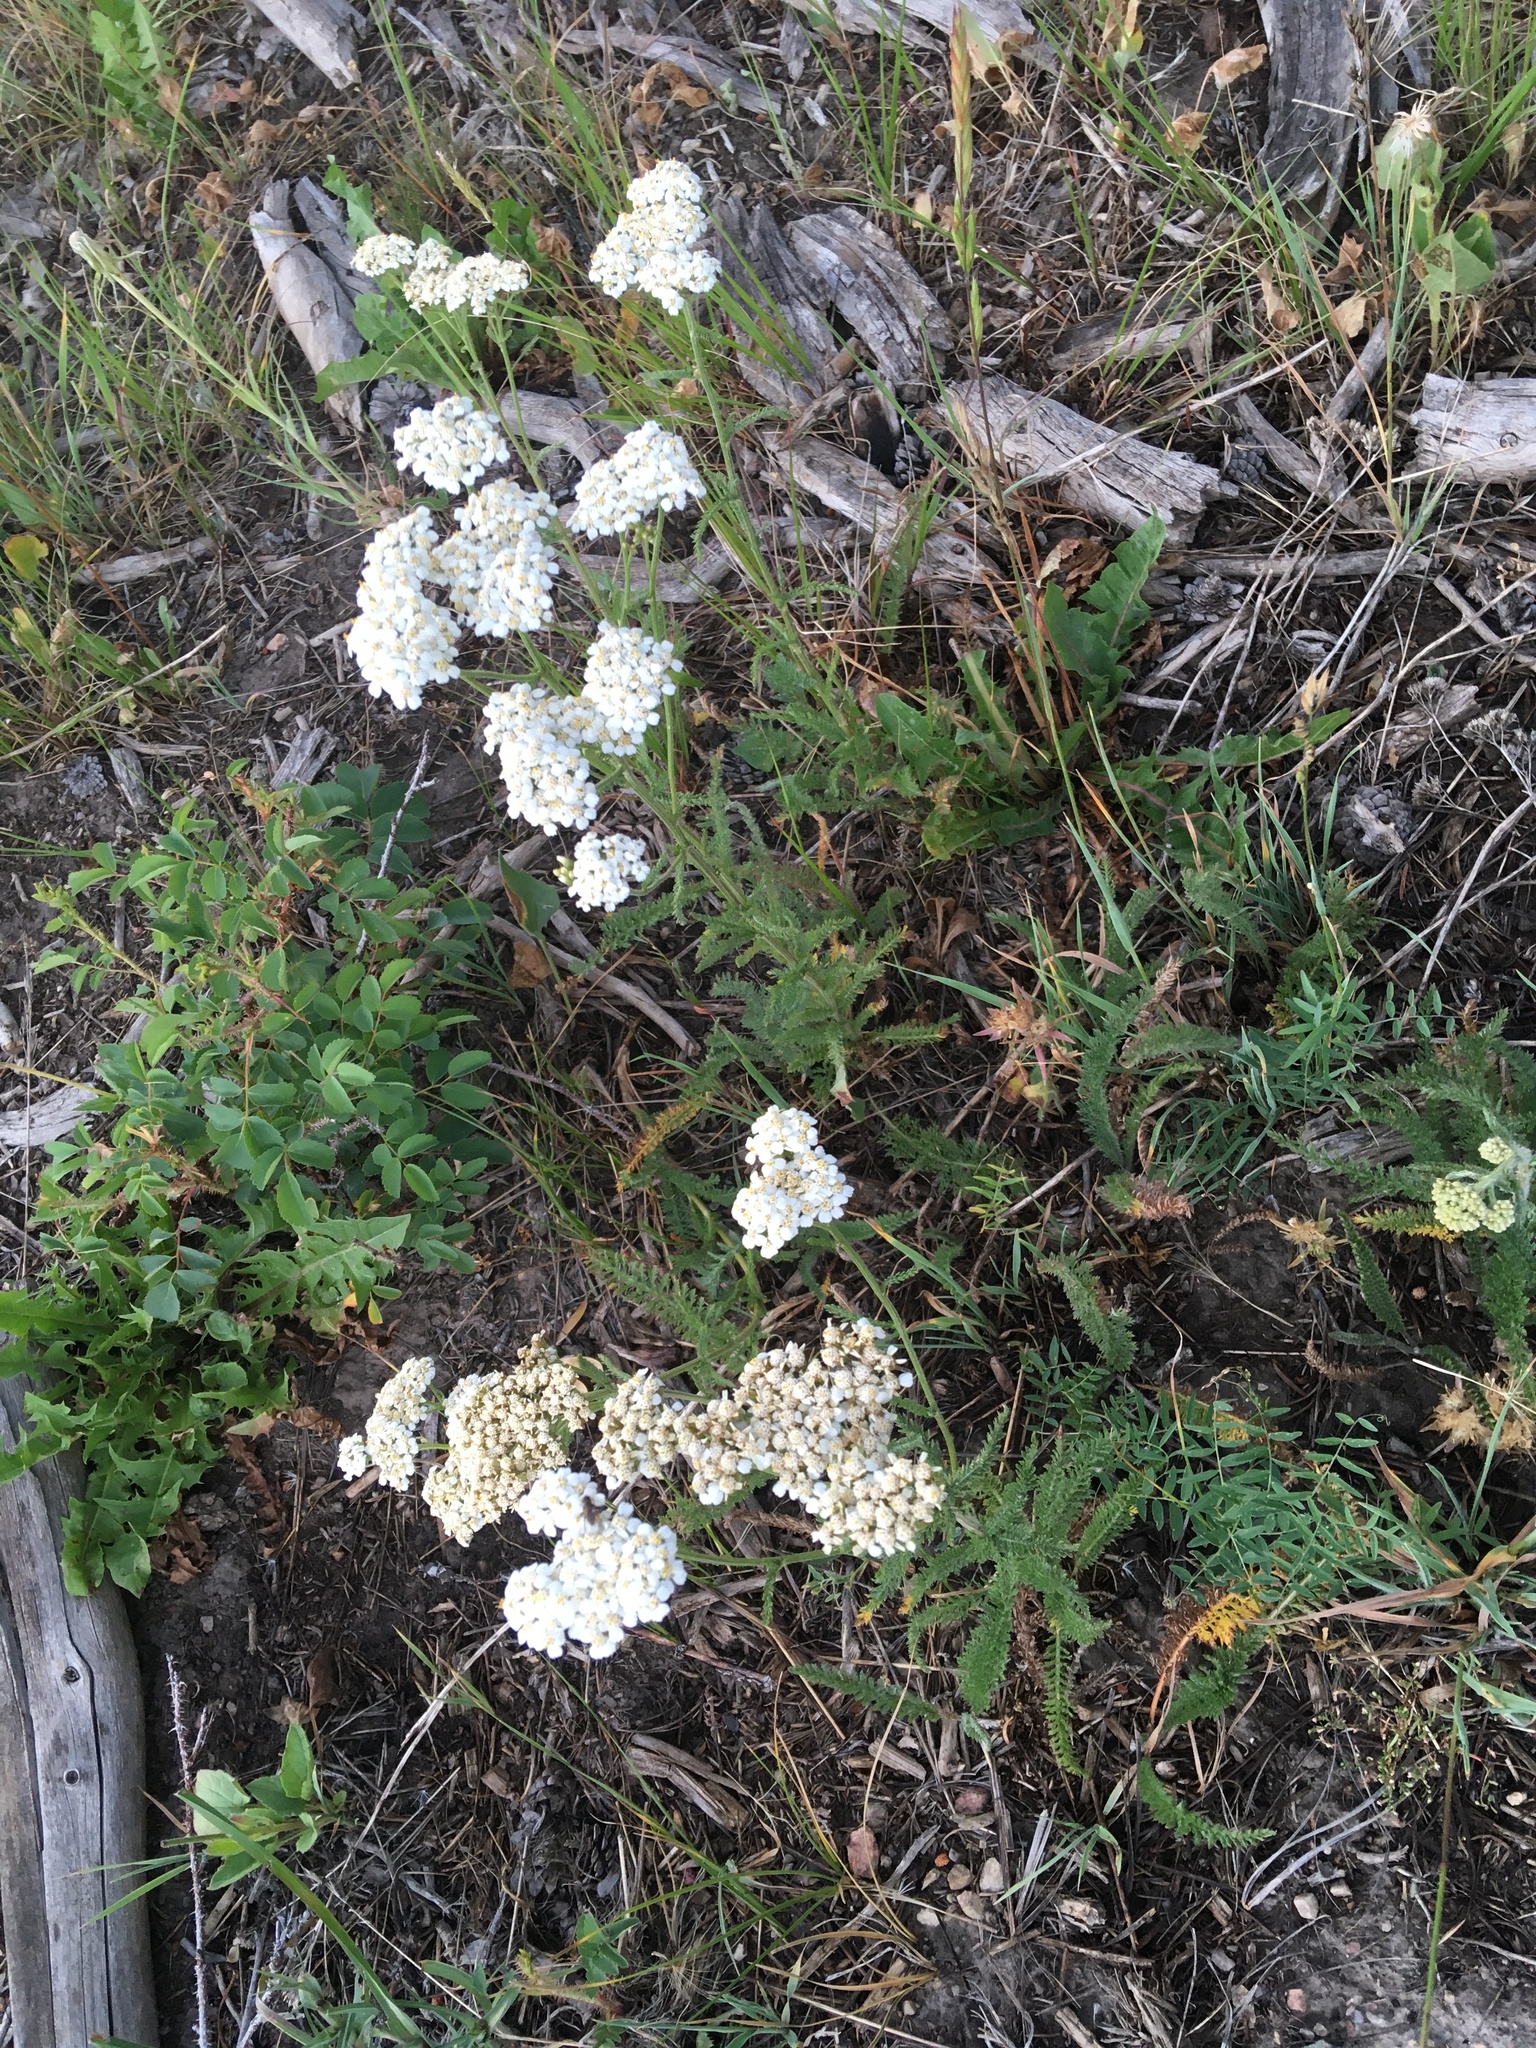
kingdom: Plantae
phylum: Tracheophyta
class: Magnoliopsida
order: Asterales
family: Asteraceae
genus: Achillea
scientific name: Achillea millefolium
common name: Yarrow
